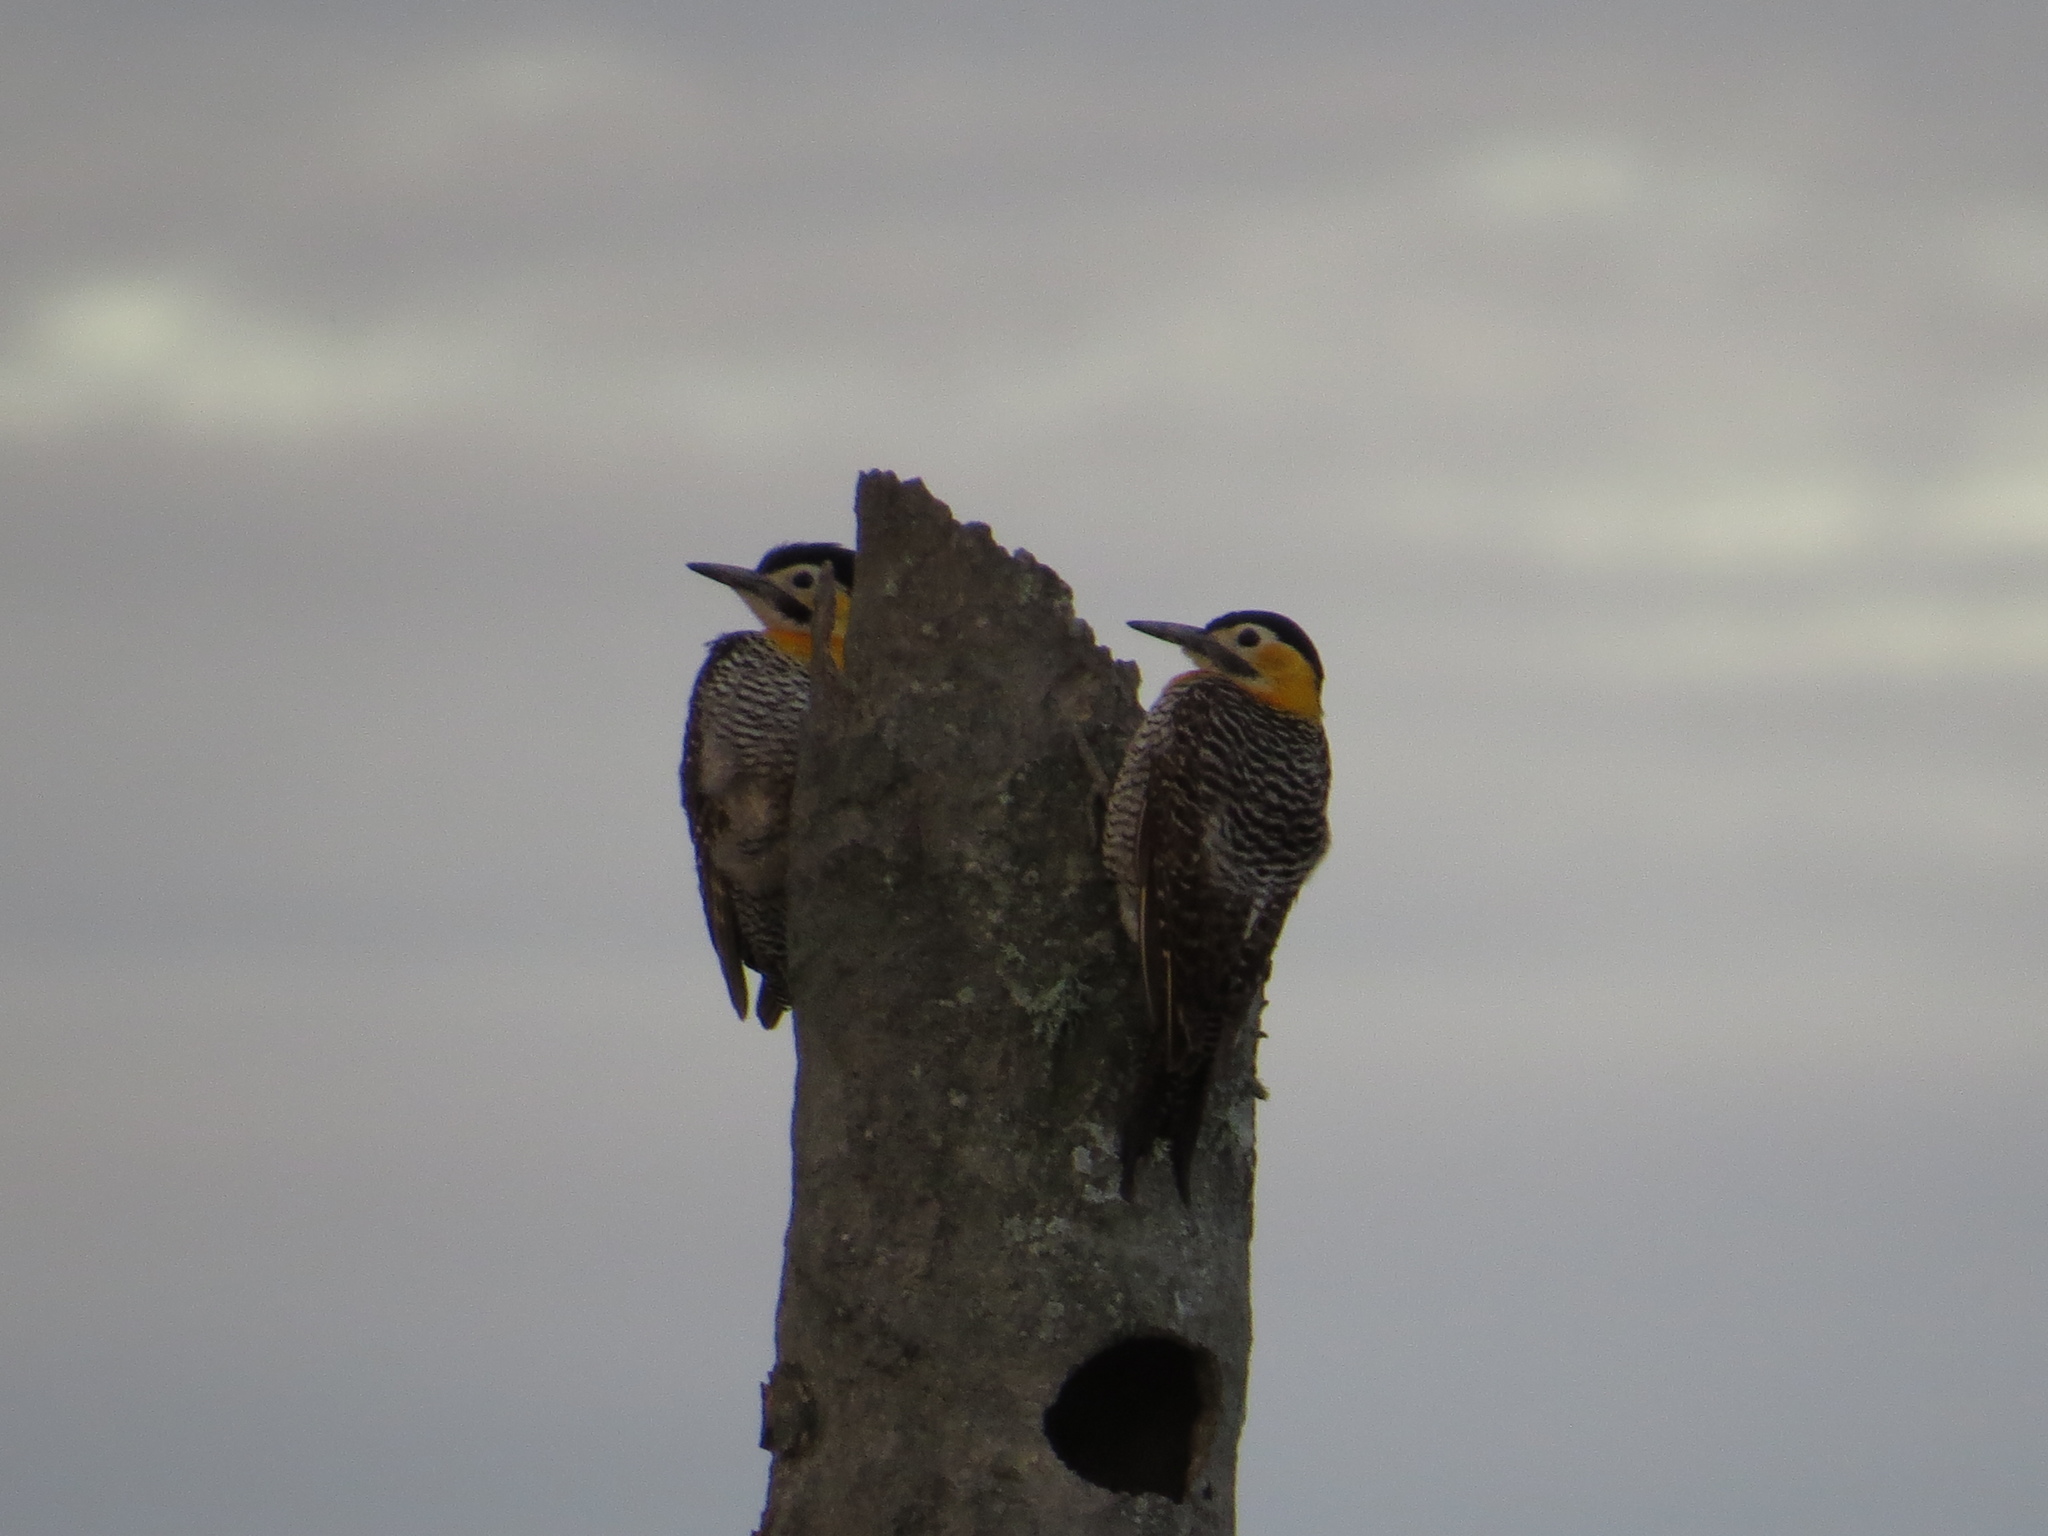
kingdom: Animalia
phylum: Chordata
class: Aves
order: Piciformes
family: Picidae
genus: Colaptes
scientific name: Colaptes campestris
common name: Campo flicker
